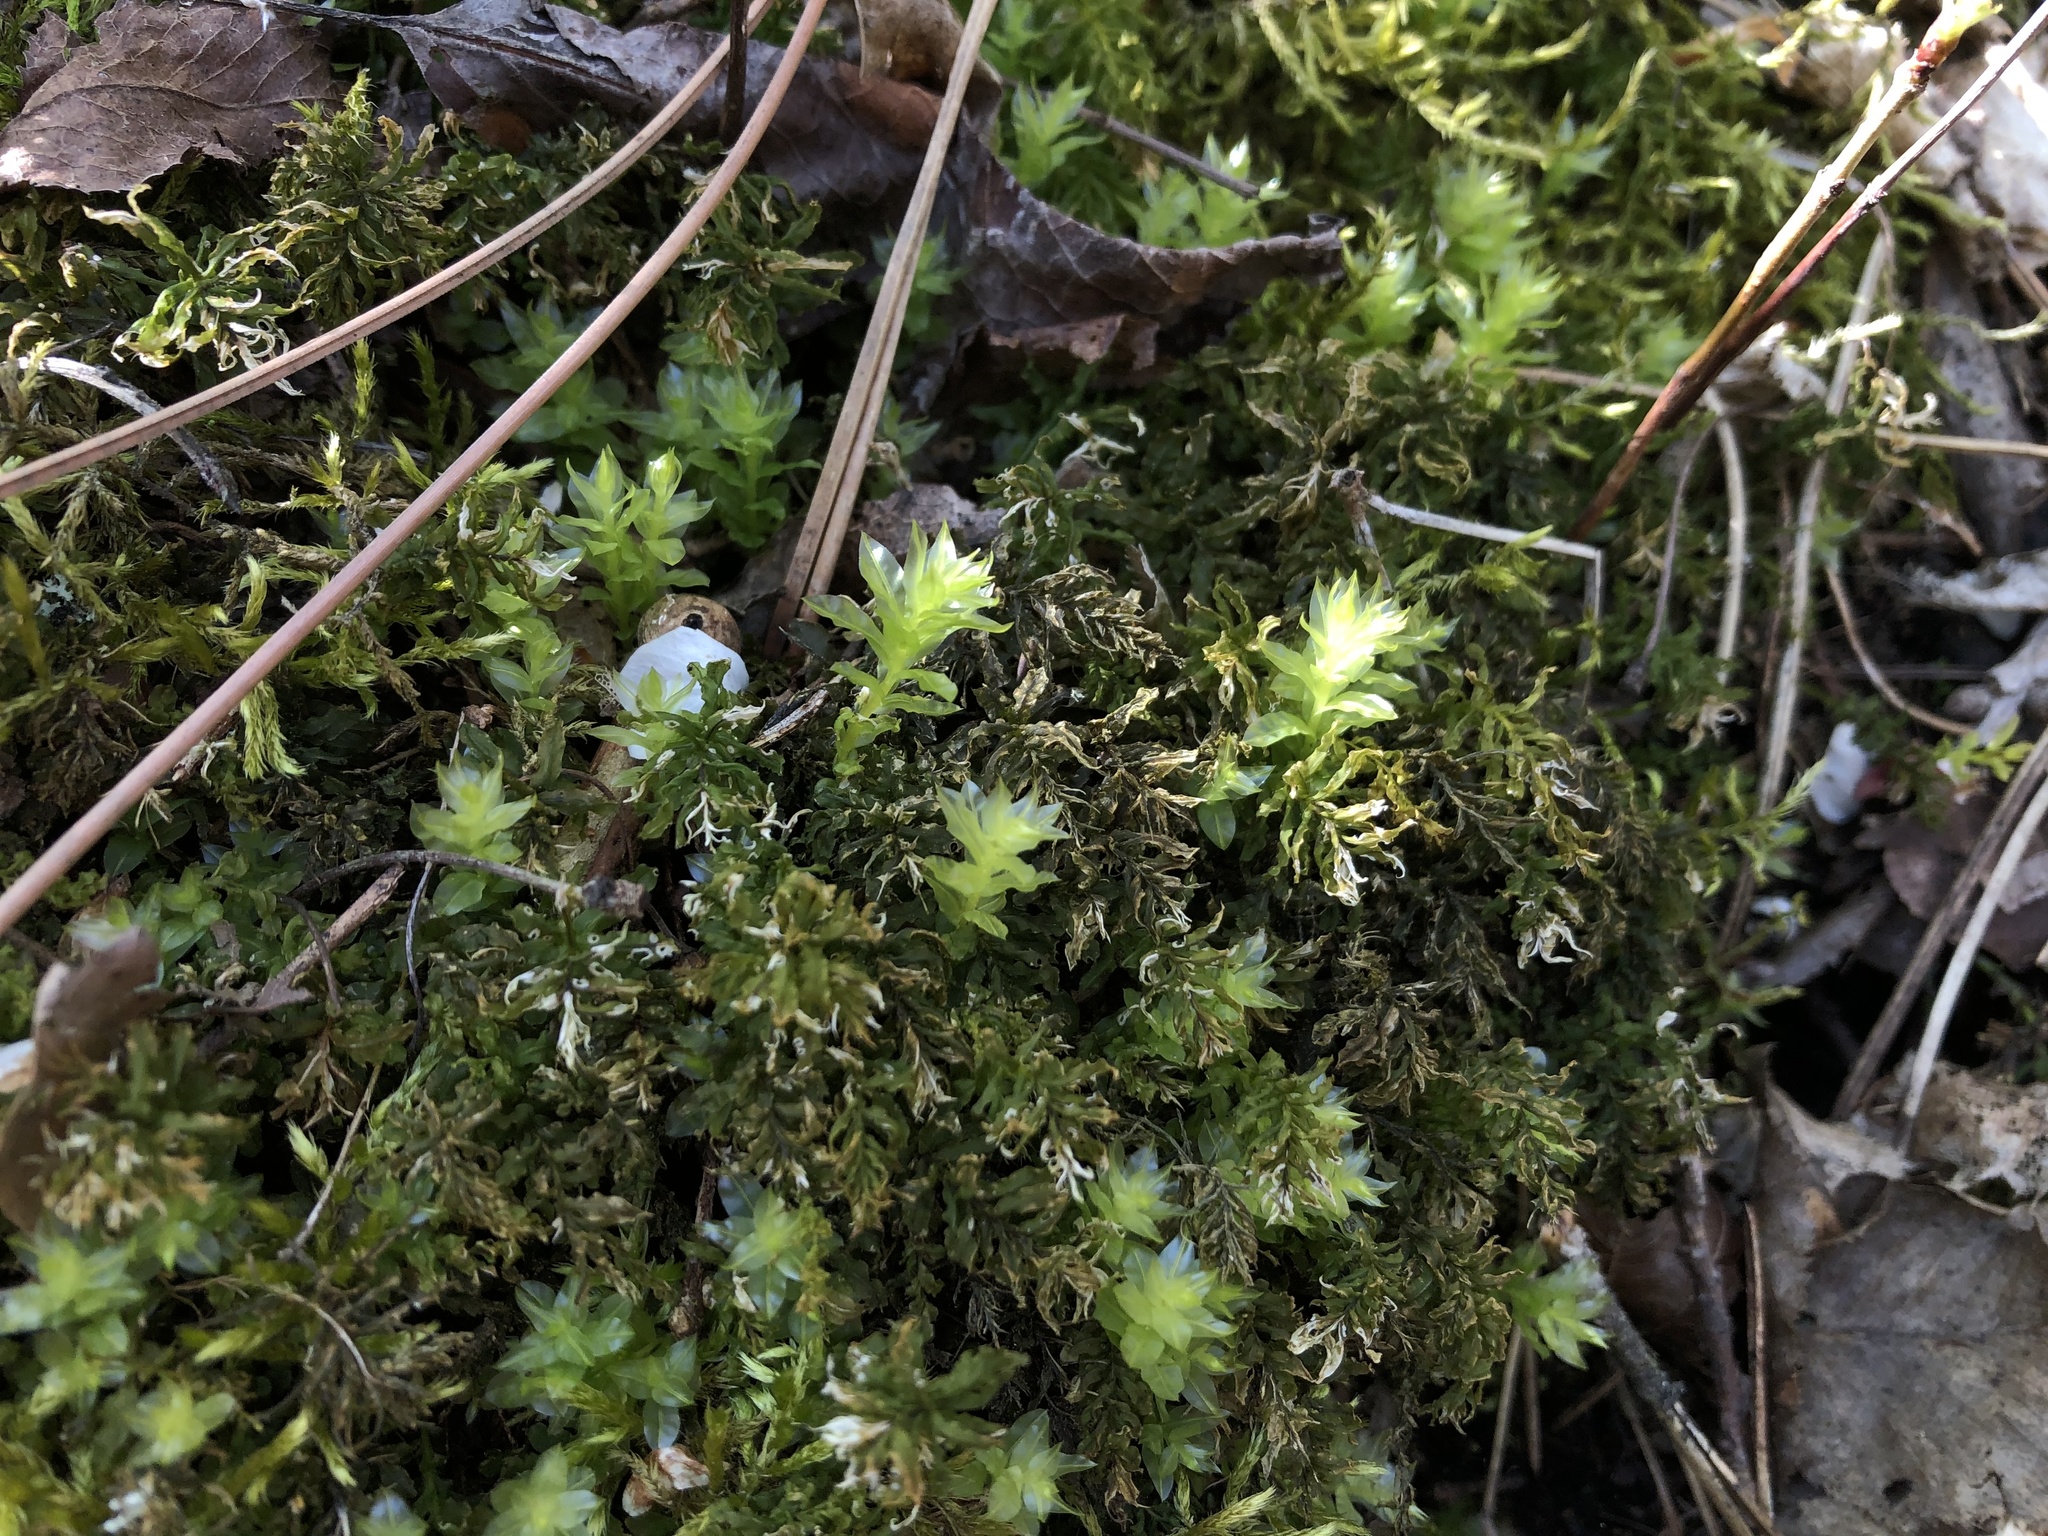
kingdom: Plantae
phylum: Bryophyta
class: Bryopsida
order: Bryales
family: Mniaceae
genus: Plagiomnium
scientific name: Plagiomnium undulatum
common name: Hart's-tongue thyme-moss
